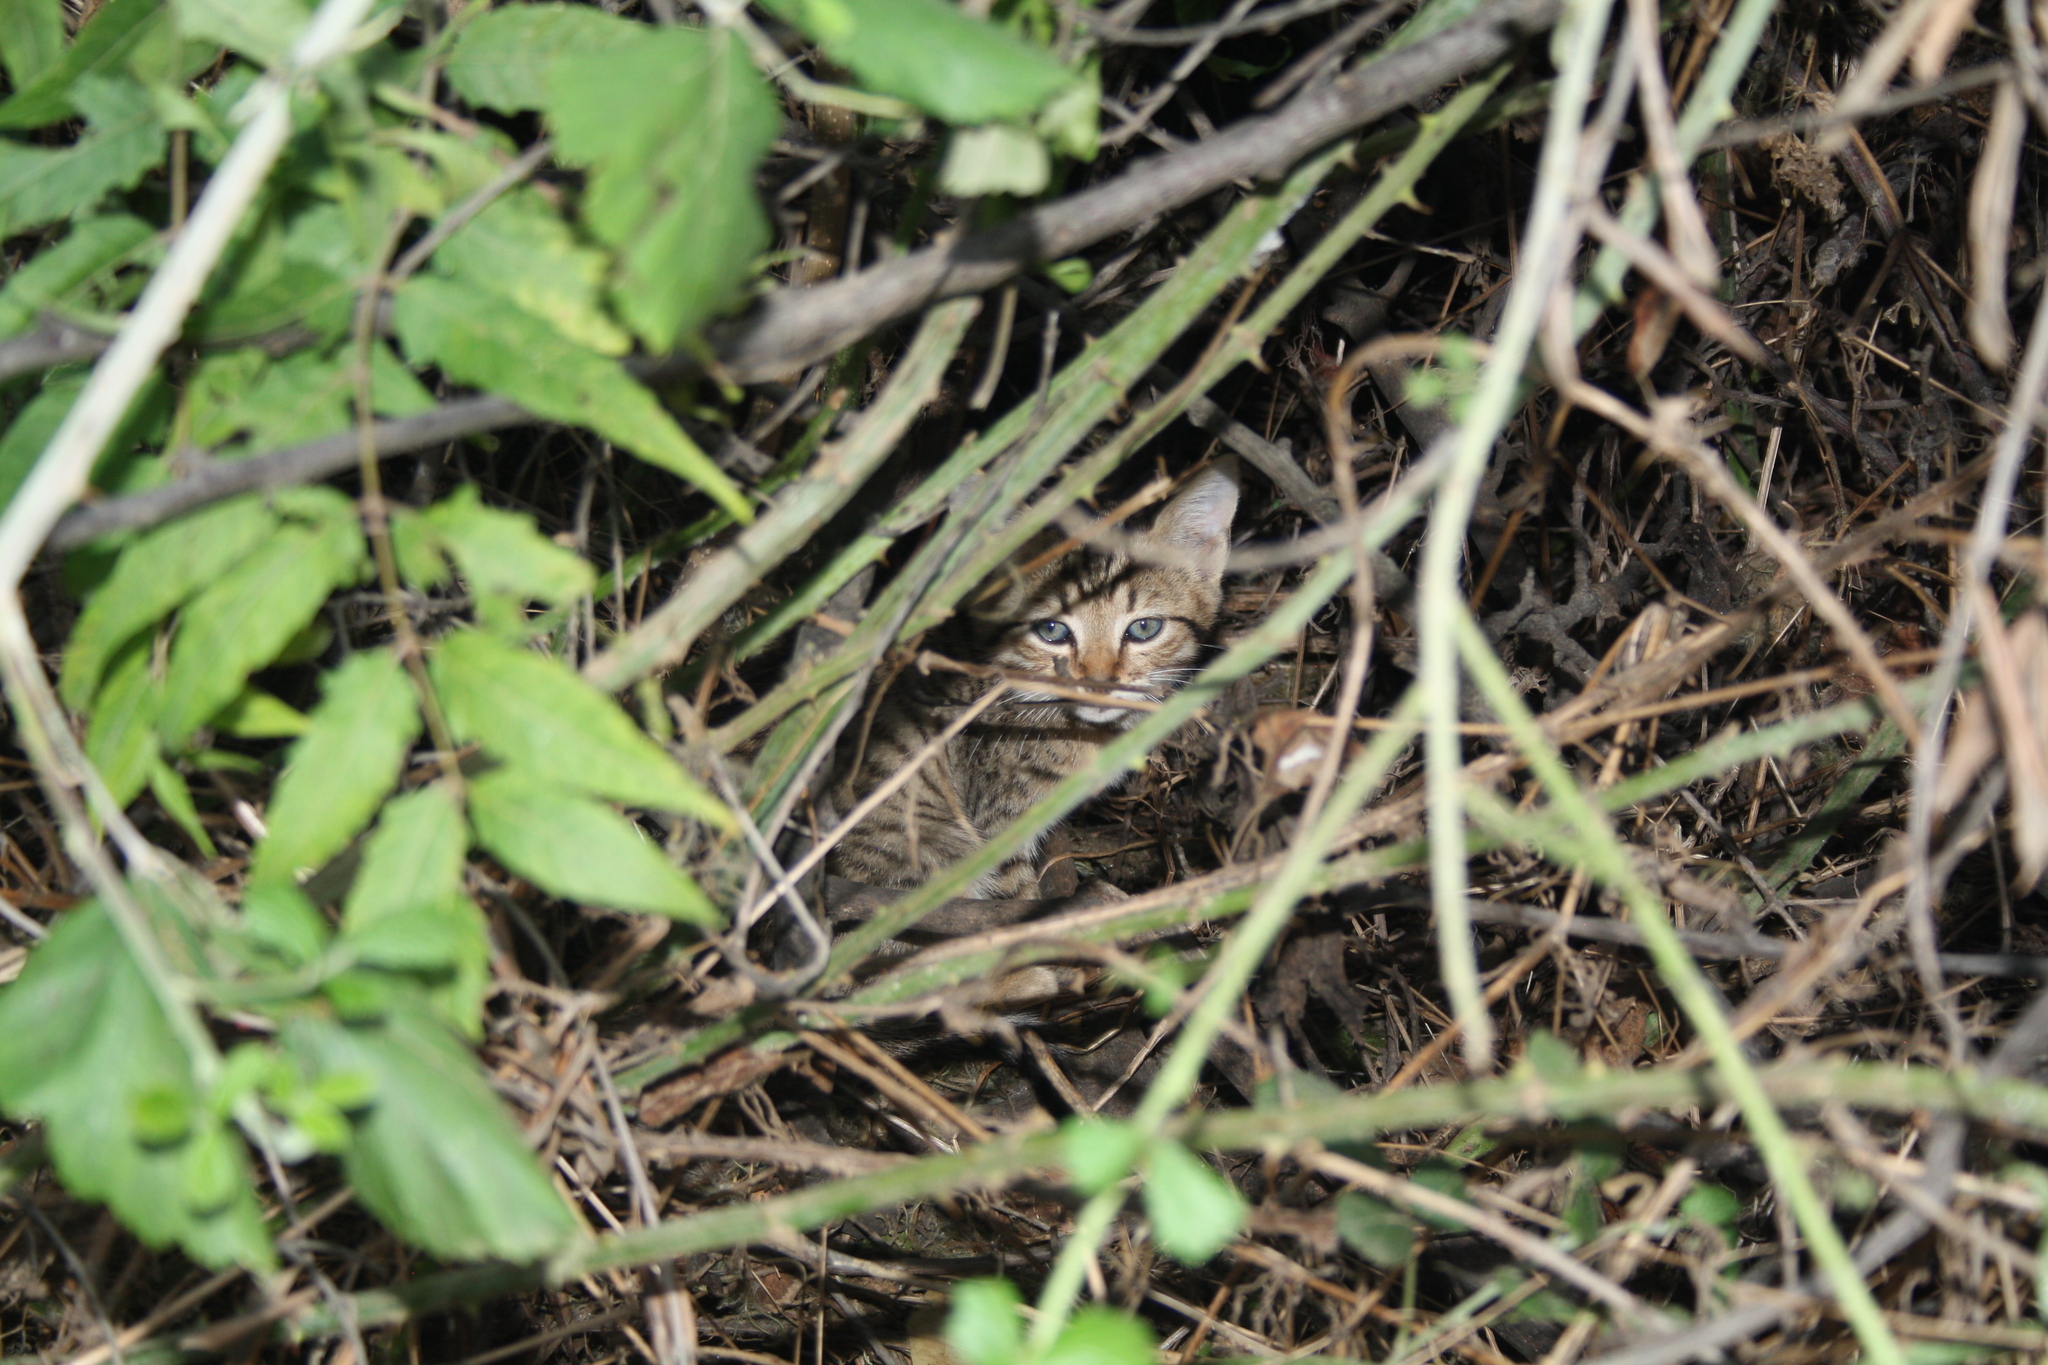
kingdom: Animalia
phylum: Chordata
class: Mammalia
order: Carnivora
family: Felidae
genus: Felis
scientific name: Felis catus
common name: Domestic cat
